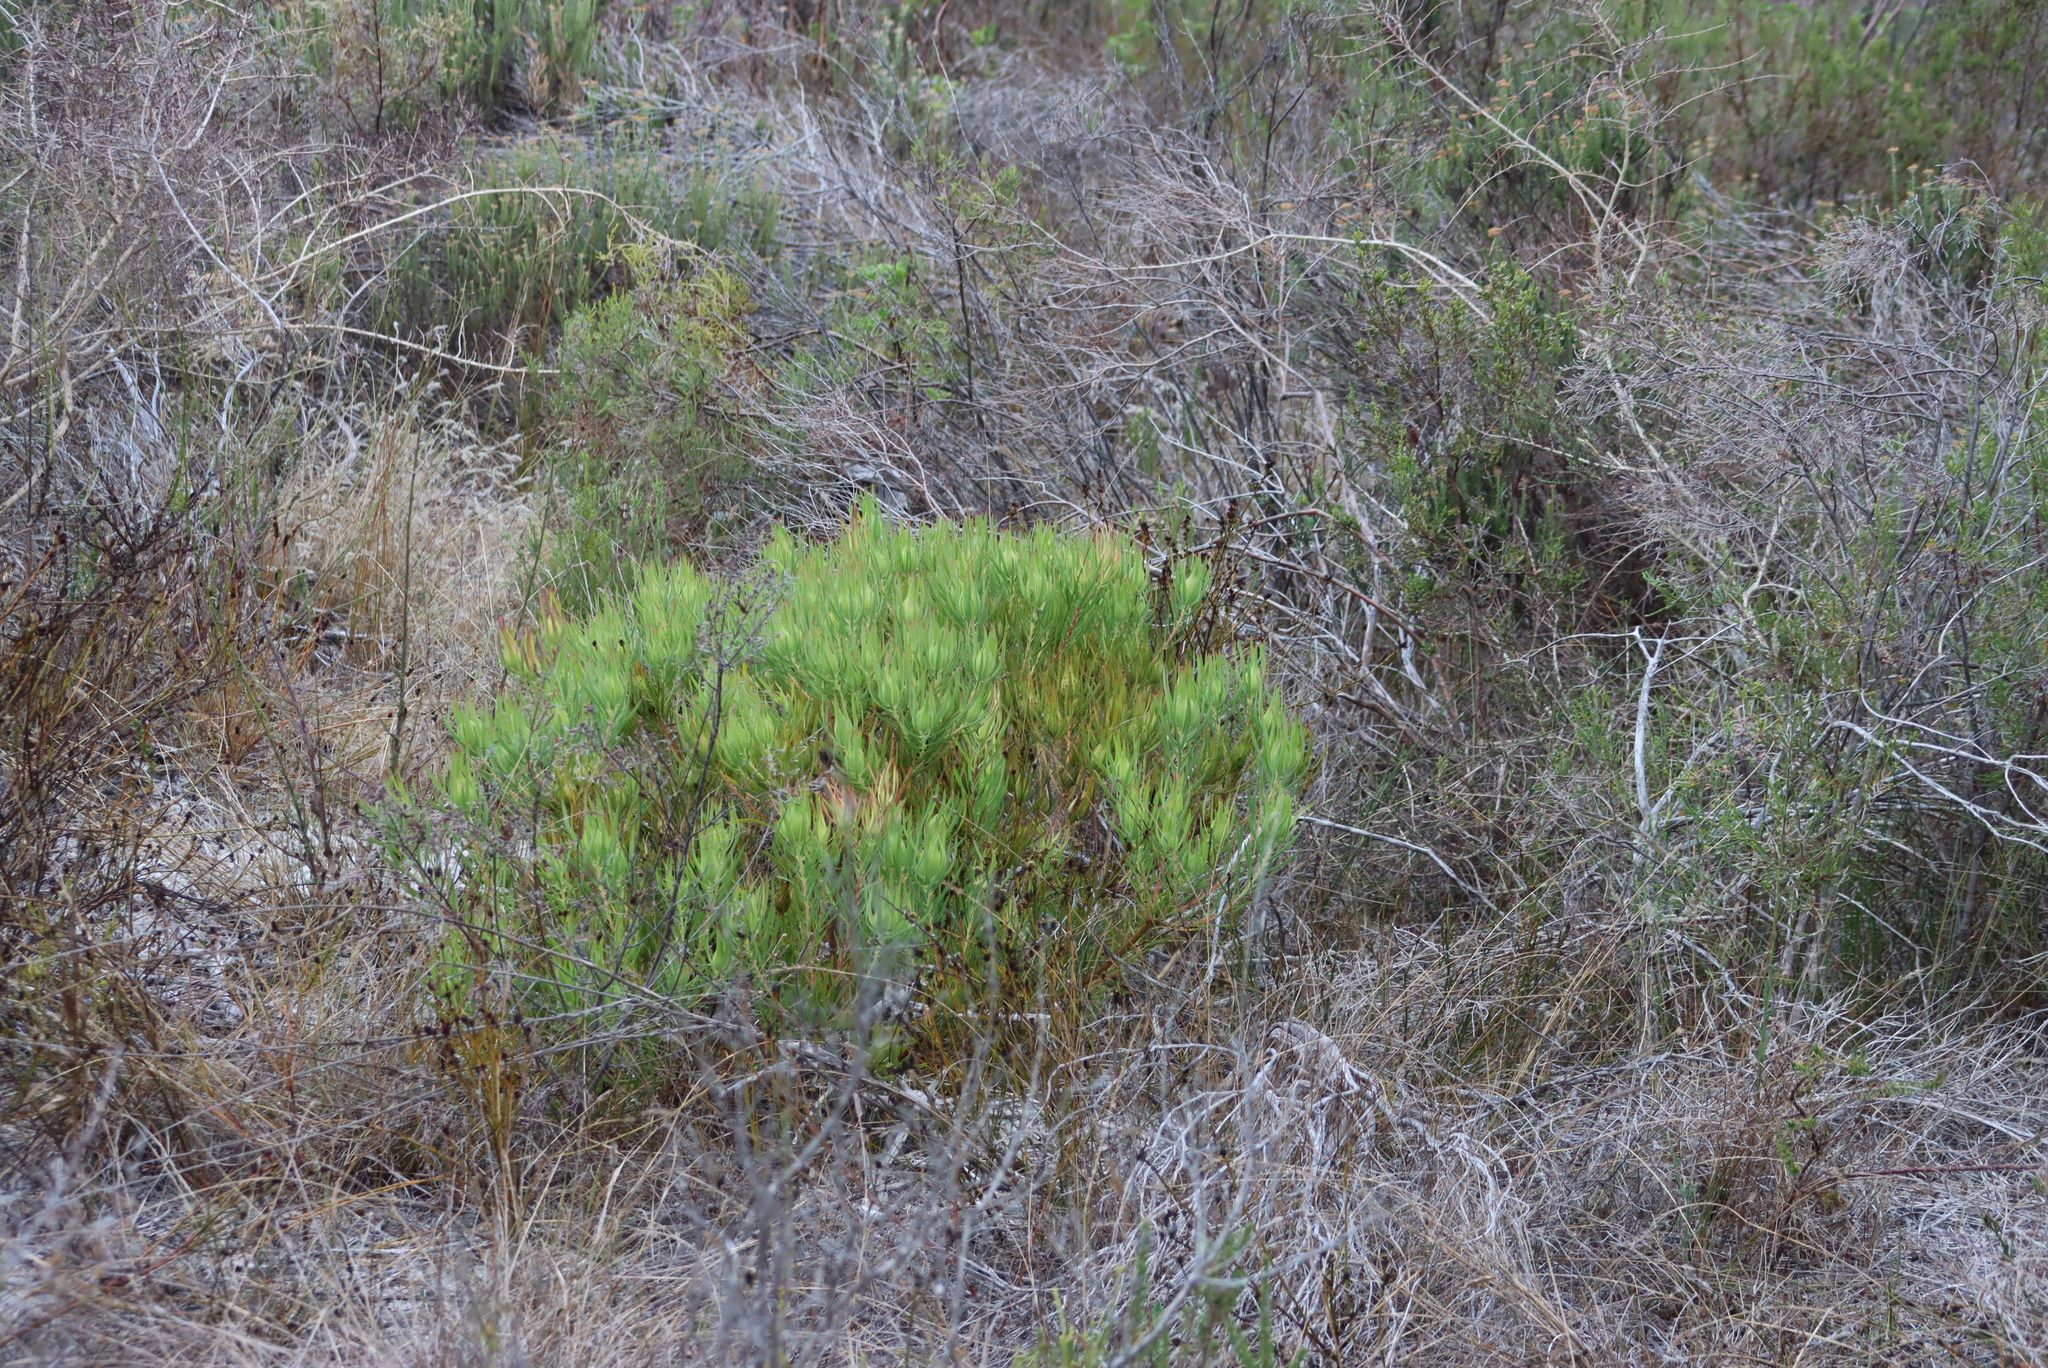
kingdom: Plantae
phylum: Tracheophyta
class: Magnoliopsida
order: Proteales
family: Proteaceae
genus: Leucadendron
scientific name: Leucadendron salignum
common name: Common sunshine conebush
